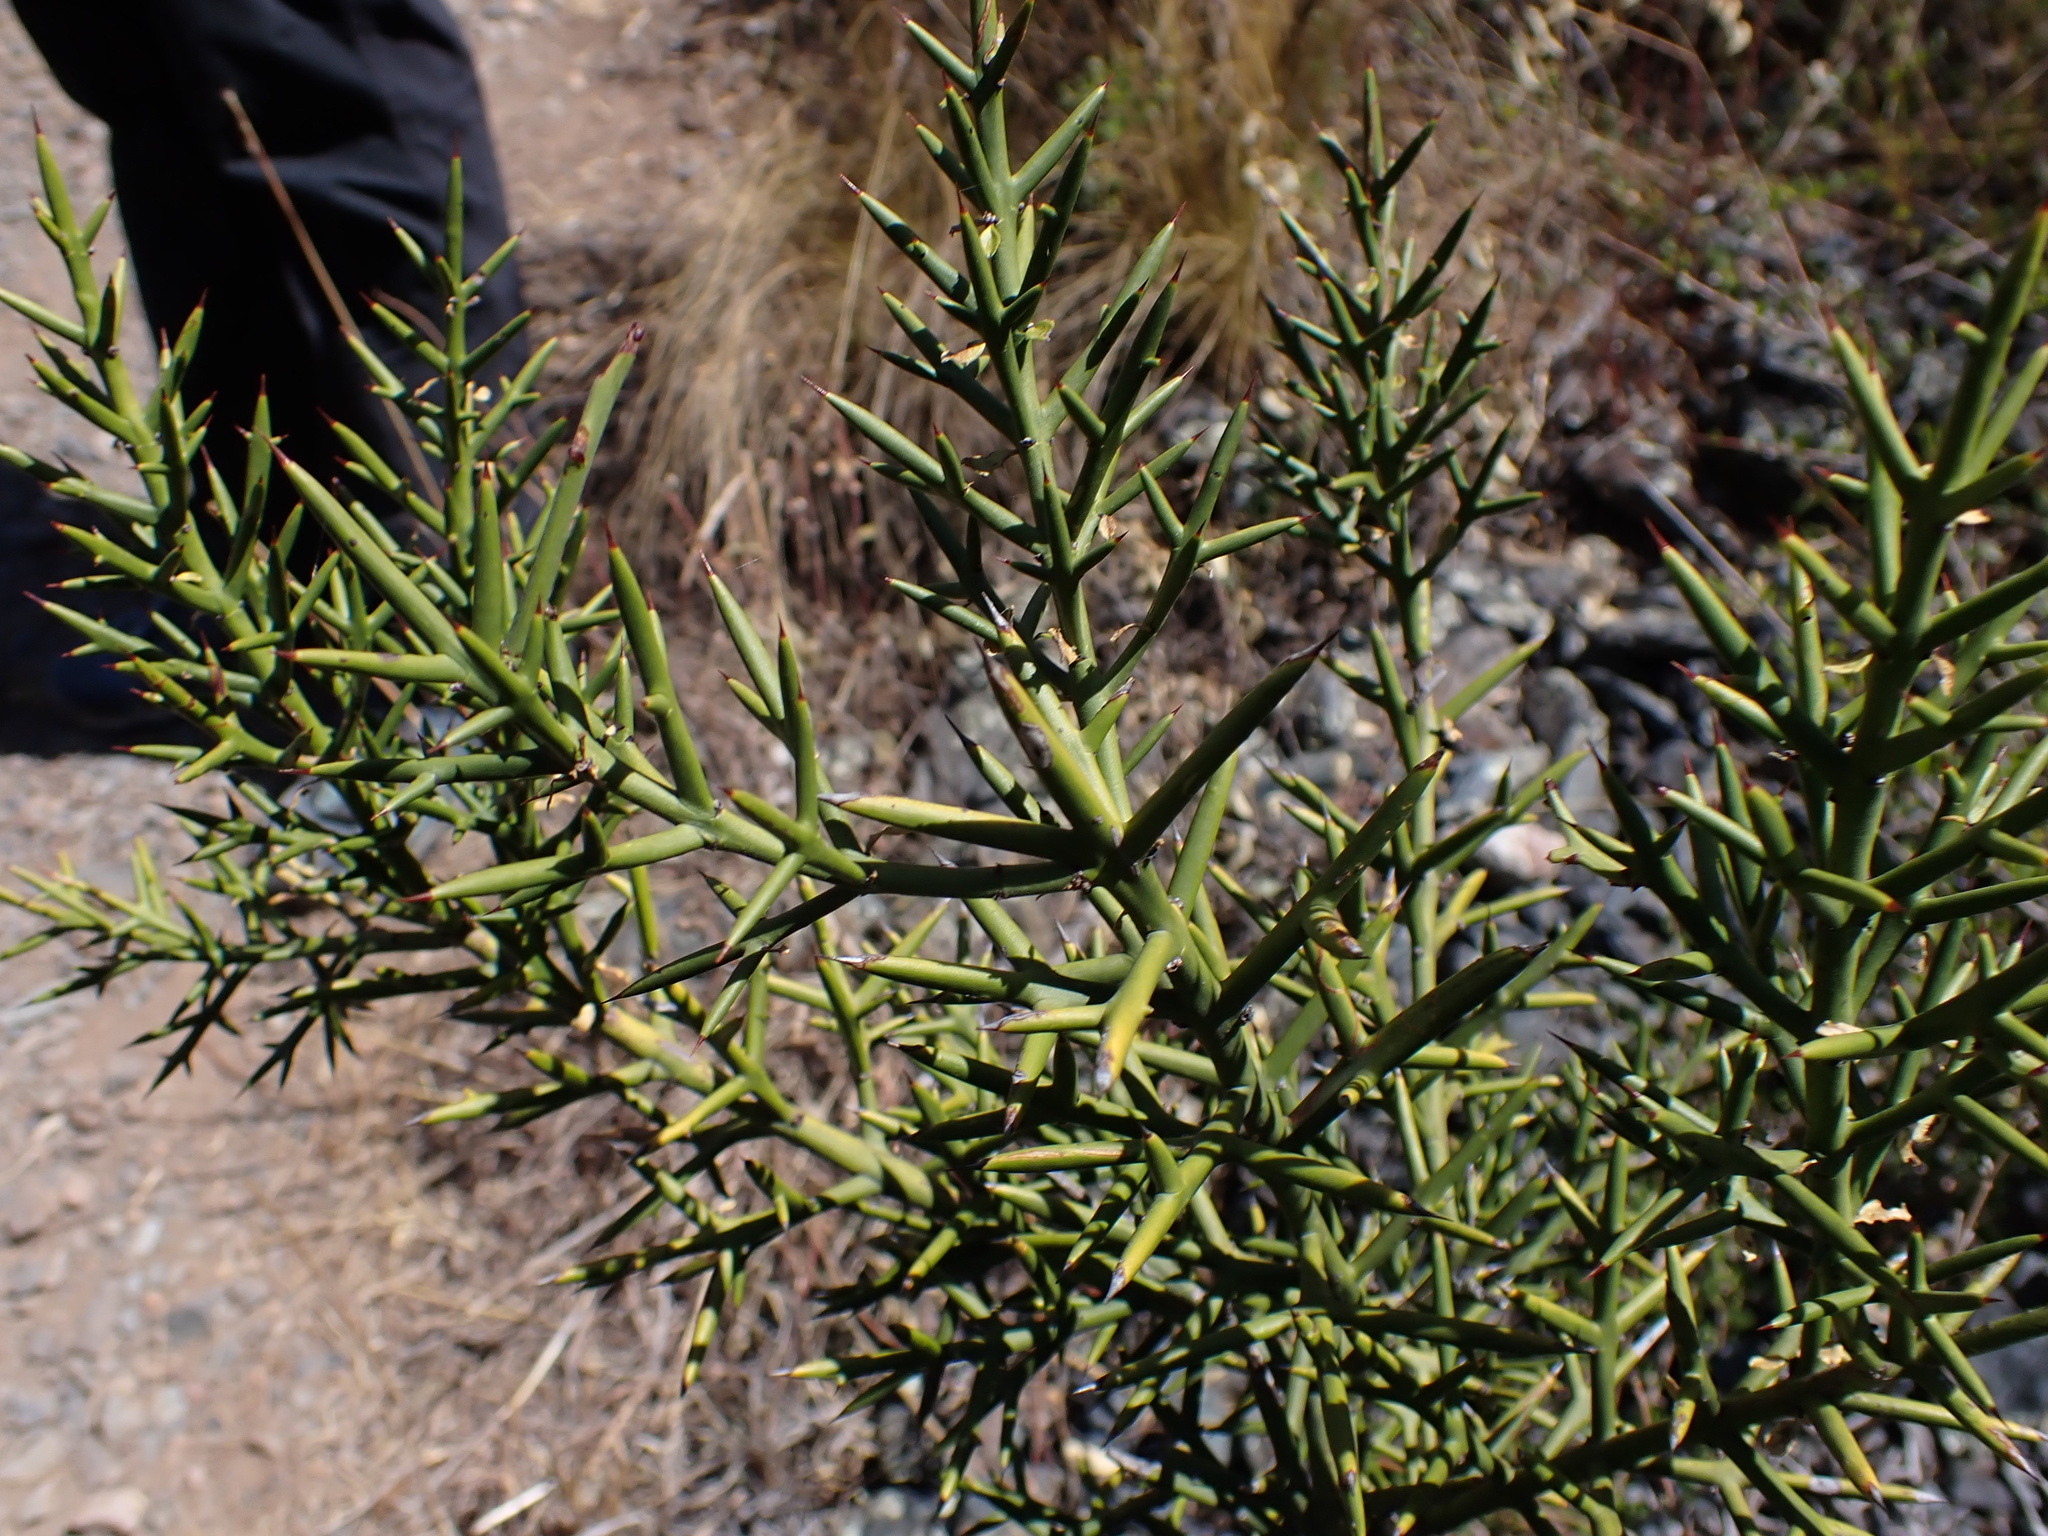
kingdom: Plantae
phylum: Tracheophyta
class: Magnoliopsida
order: Rosales
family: Rhamnaceae
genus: Colletia
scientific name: Colletia spinosissima
